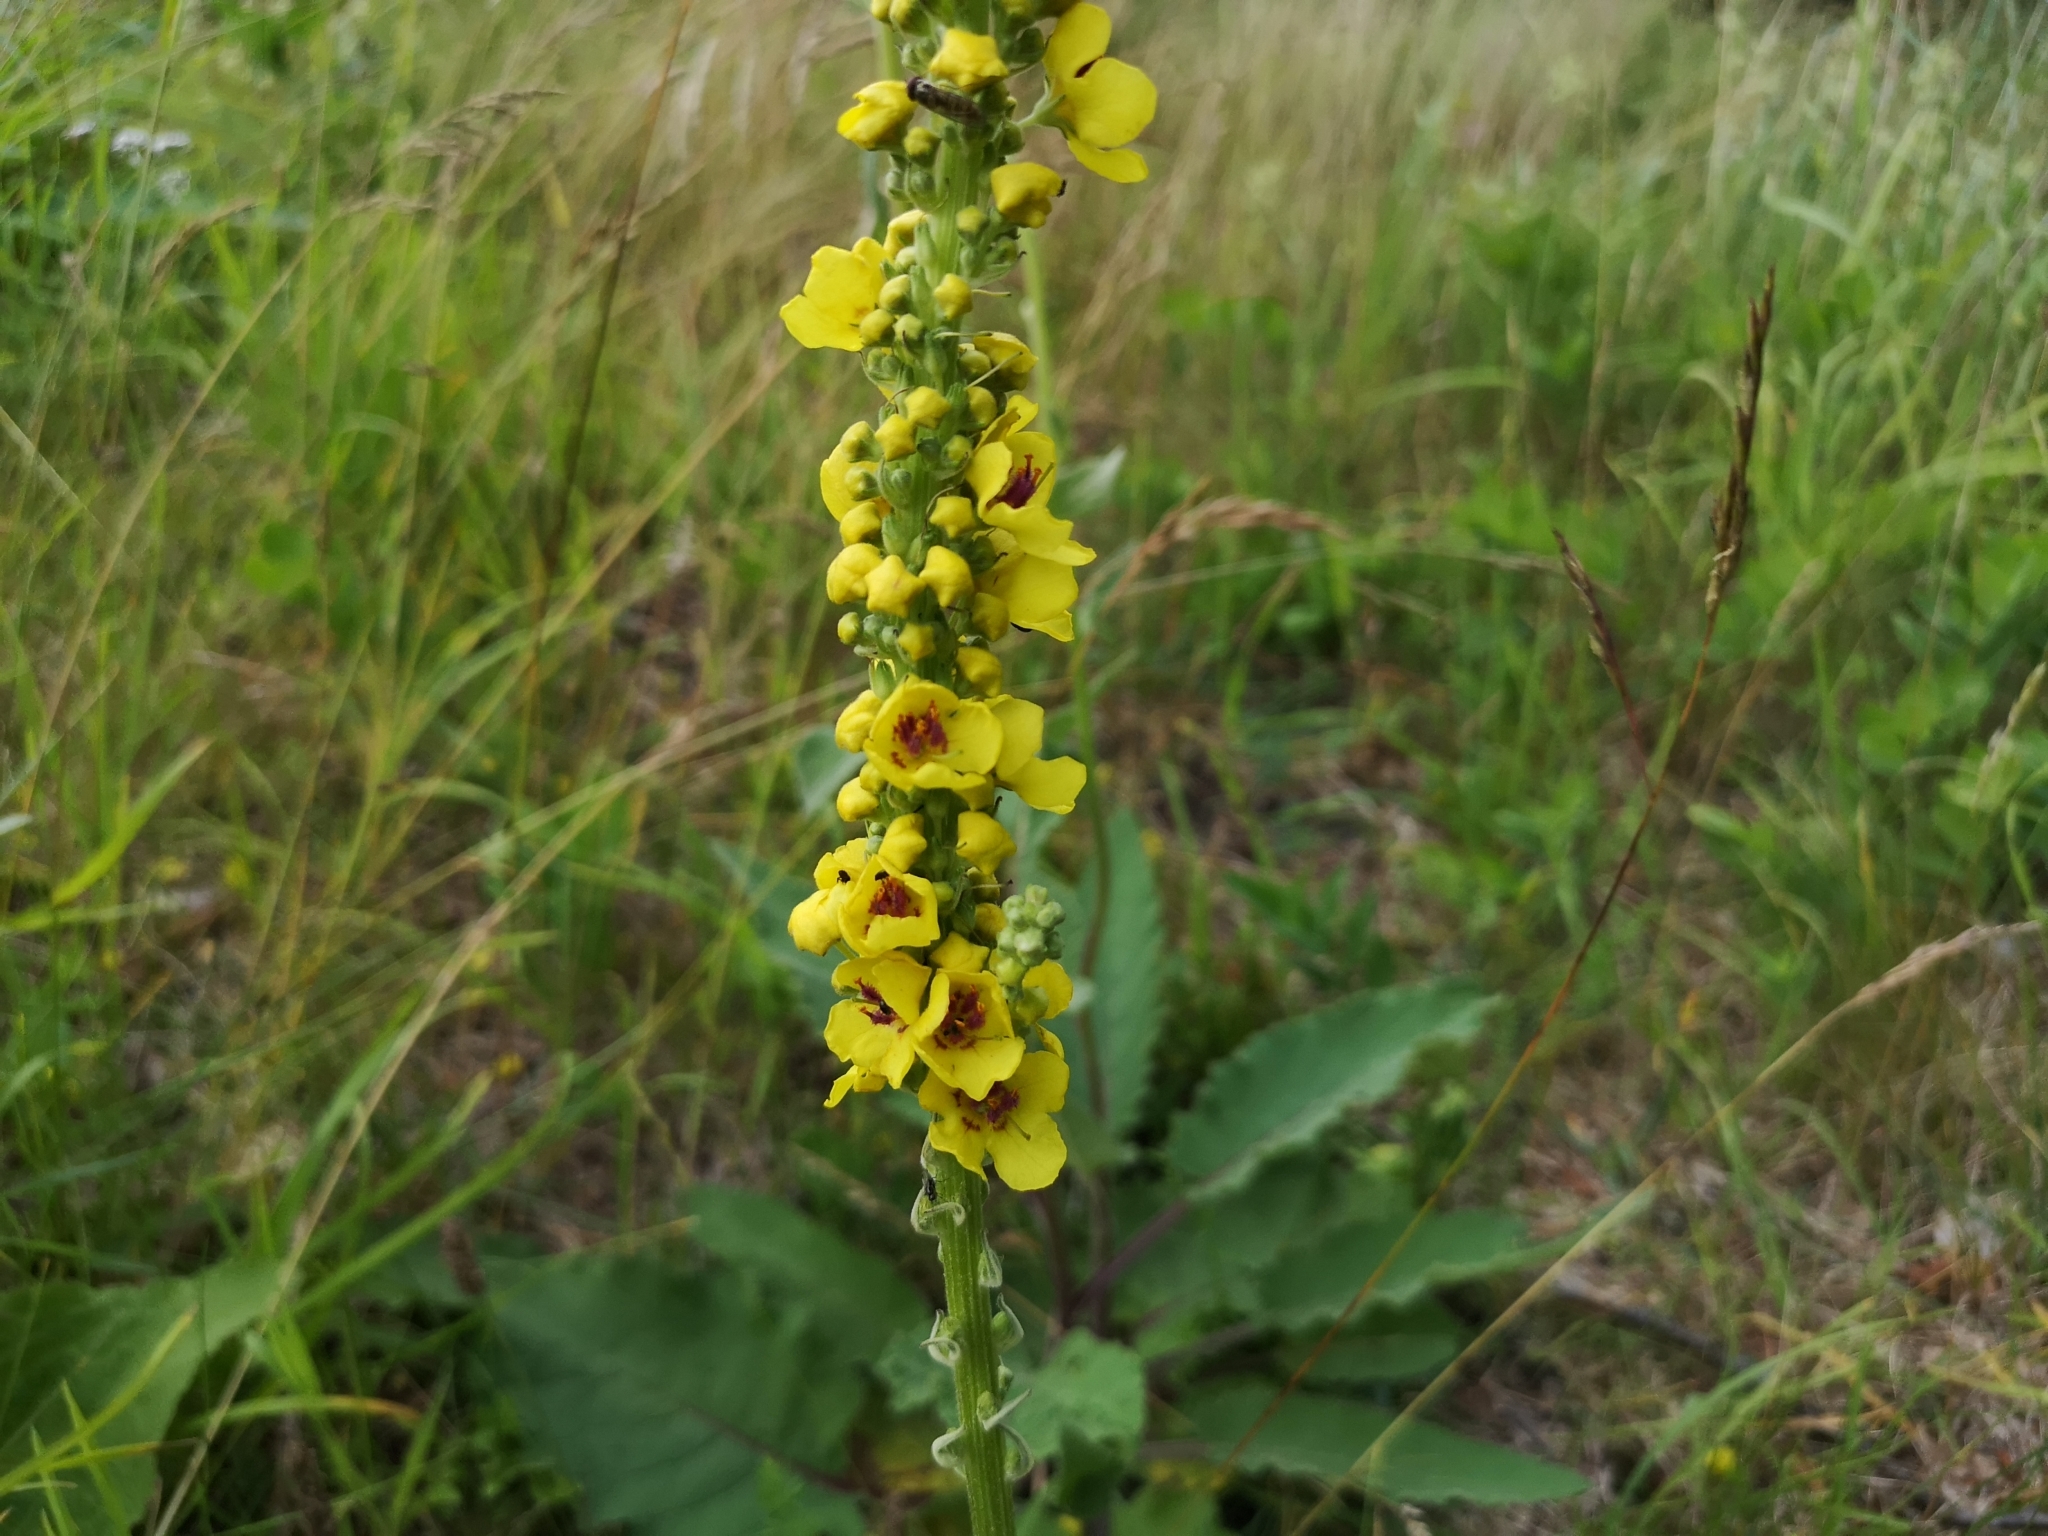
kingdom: Plantae
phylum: Tracheophyta
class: Magnoliopsida
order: Lamiales
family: Scrophulariaceae
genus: Verbascum
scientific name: Verbascum nigrum
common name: Dark mullein
